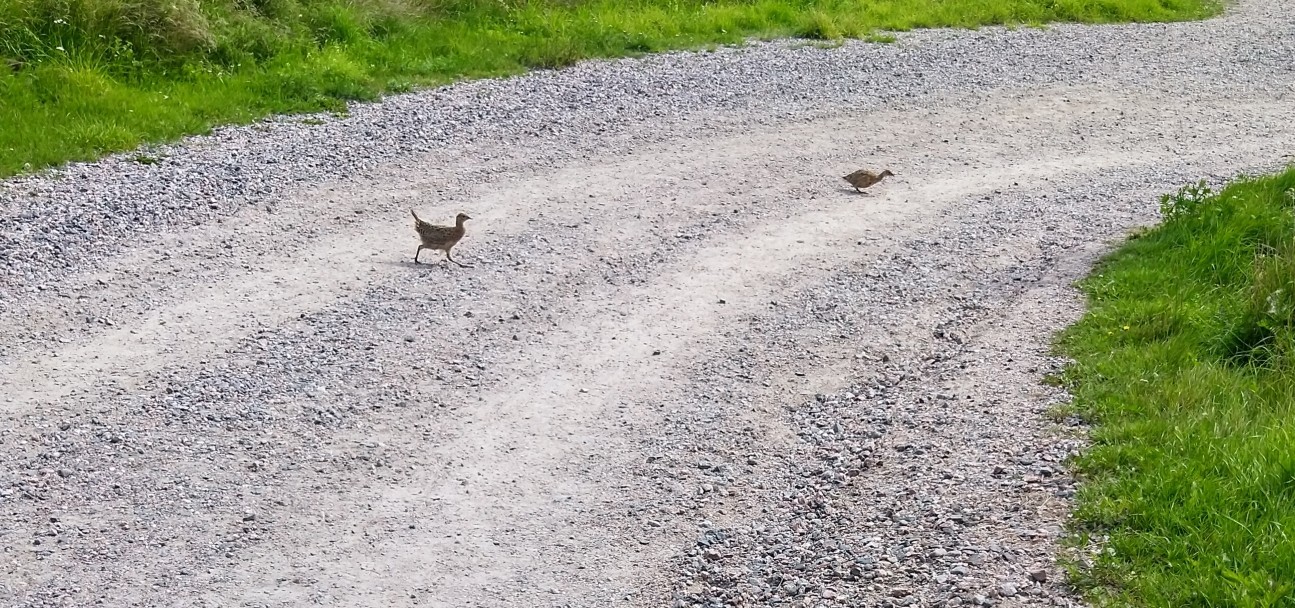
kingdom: Animalia
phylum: Chordata
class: Aves
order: Galliformes
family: Phasianidae
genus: Phasianus
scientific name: Phasianus colchicus
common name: Common pheasant
